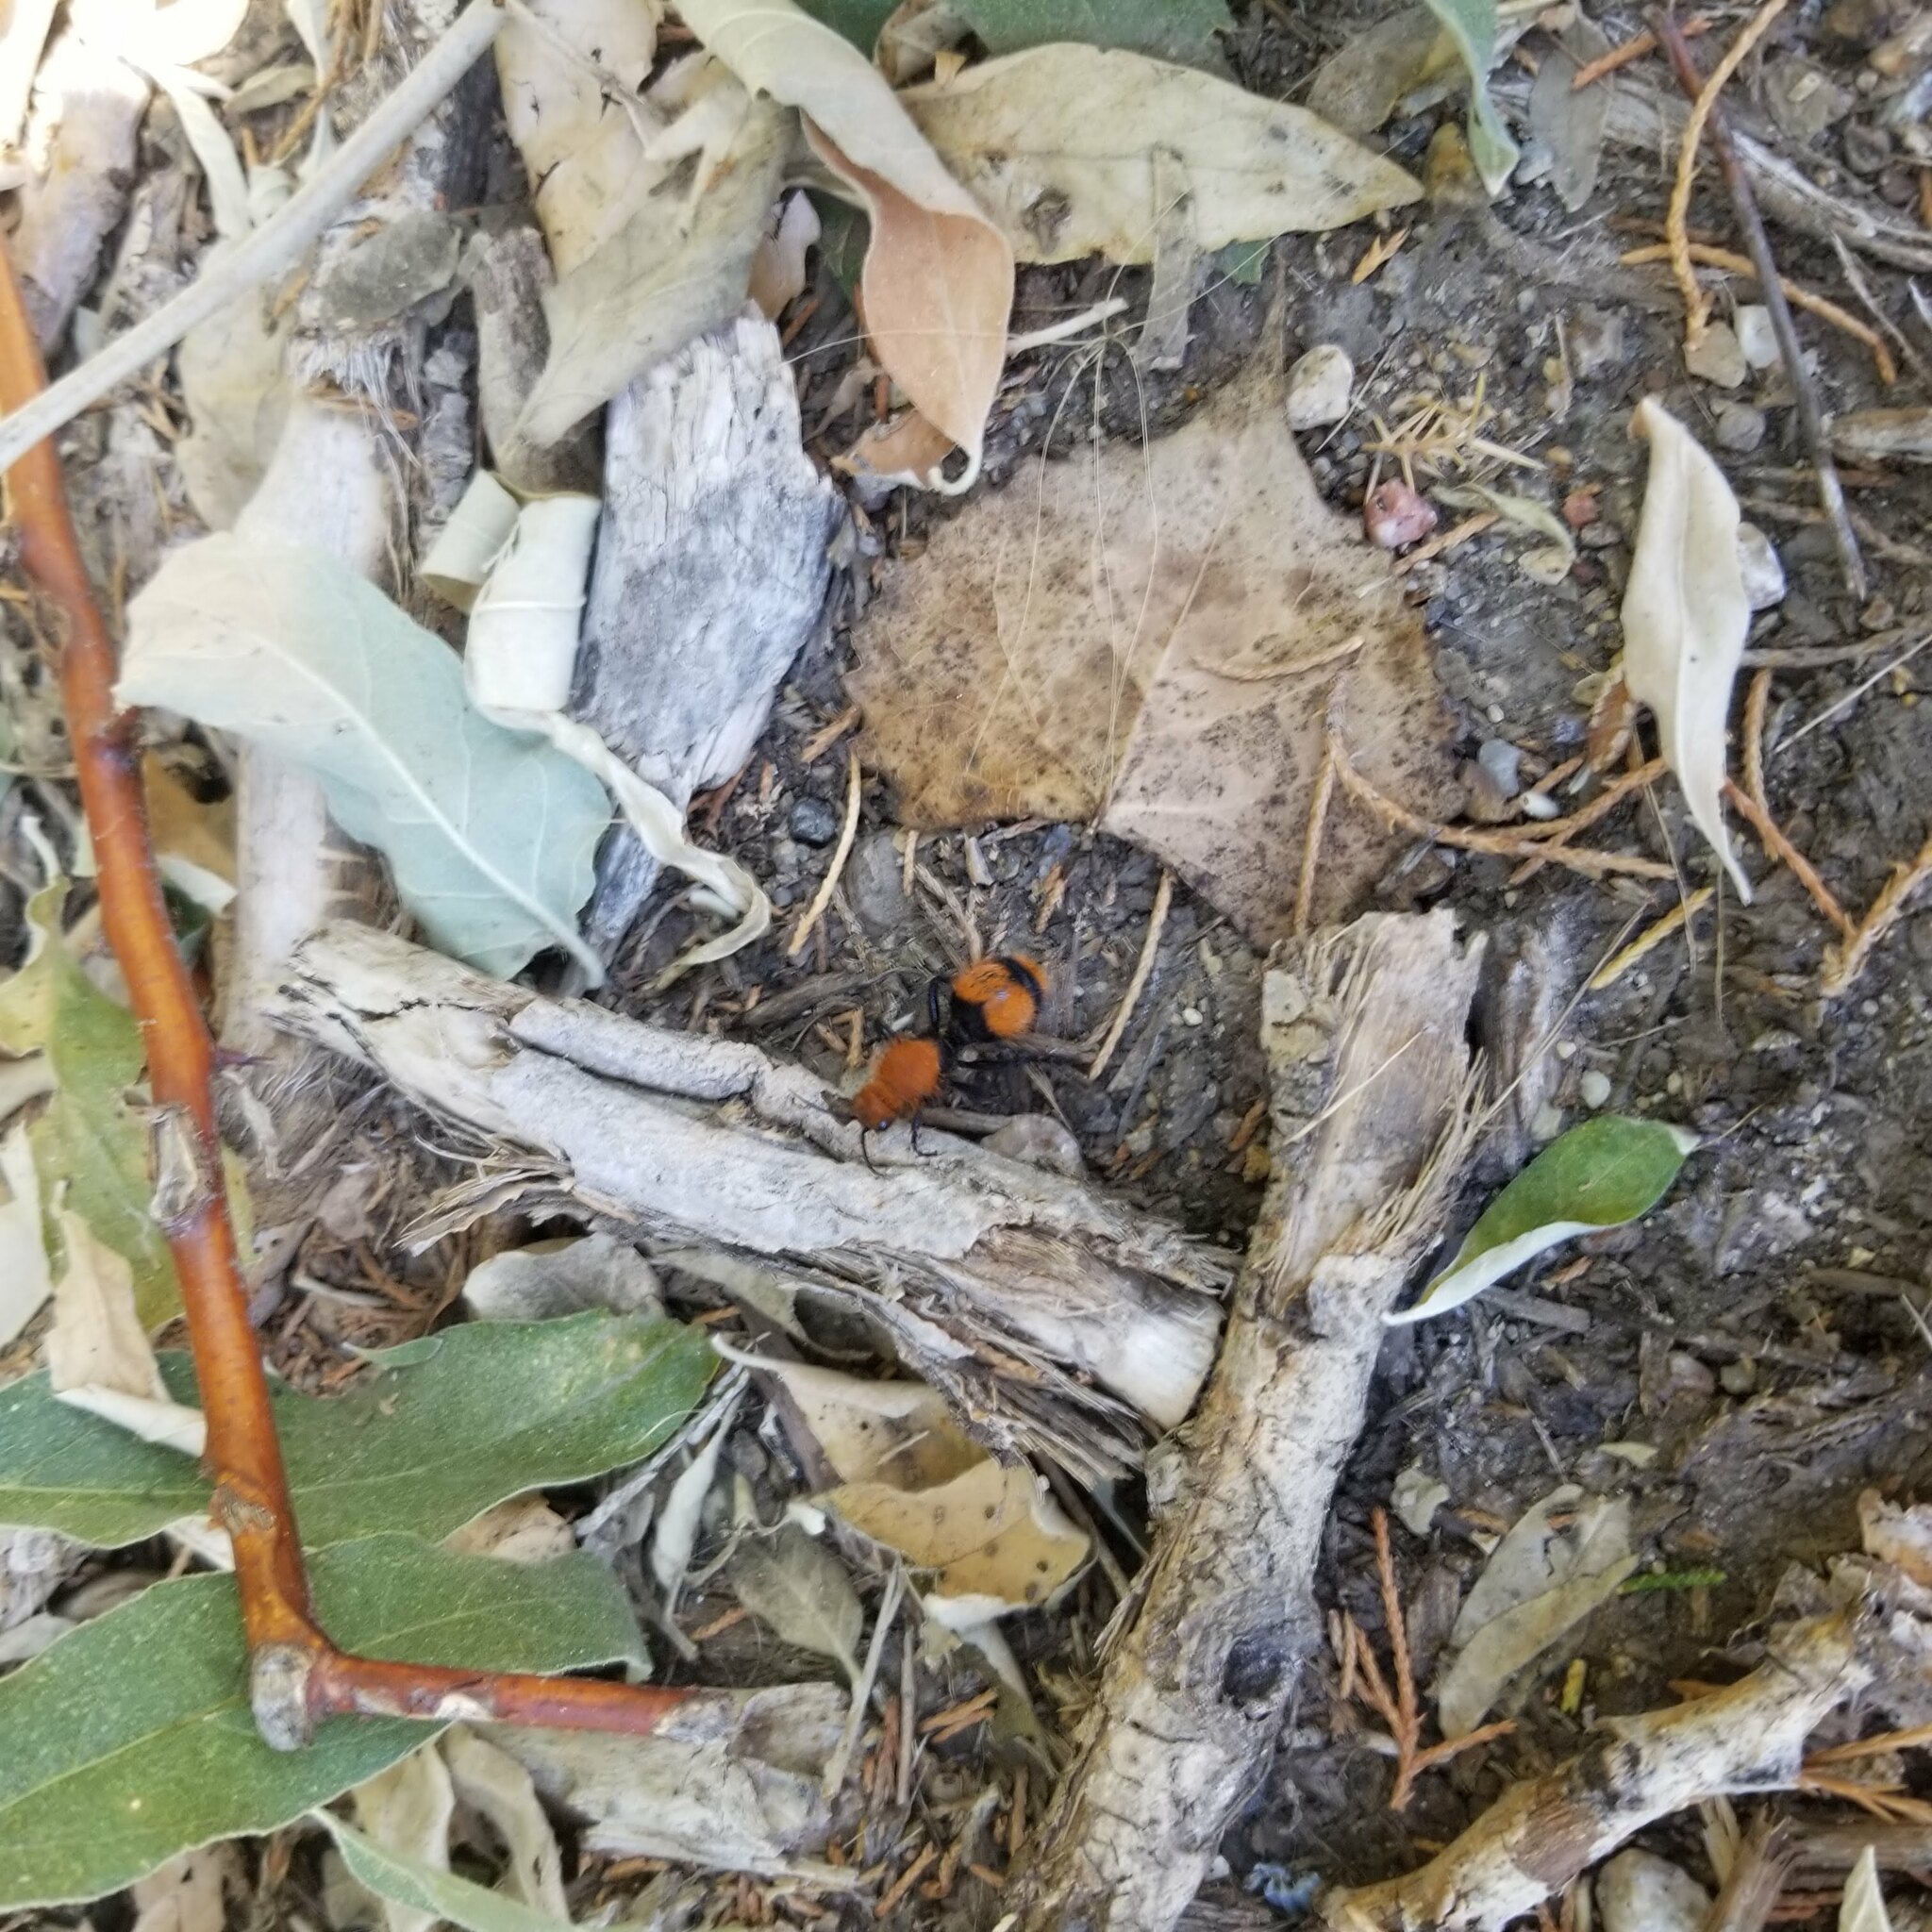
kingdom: Animalia
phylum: Arthropoda
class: Insecta
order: Hymenoptera
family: Mutillidae
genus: Dasymutilla
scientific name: Dasymutilla occidentalis
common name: Common eastern velvet ant
